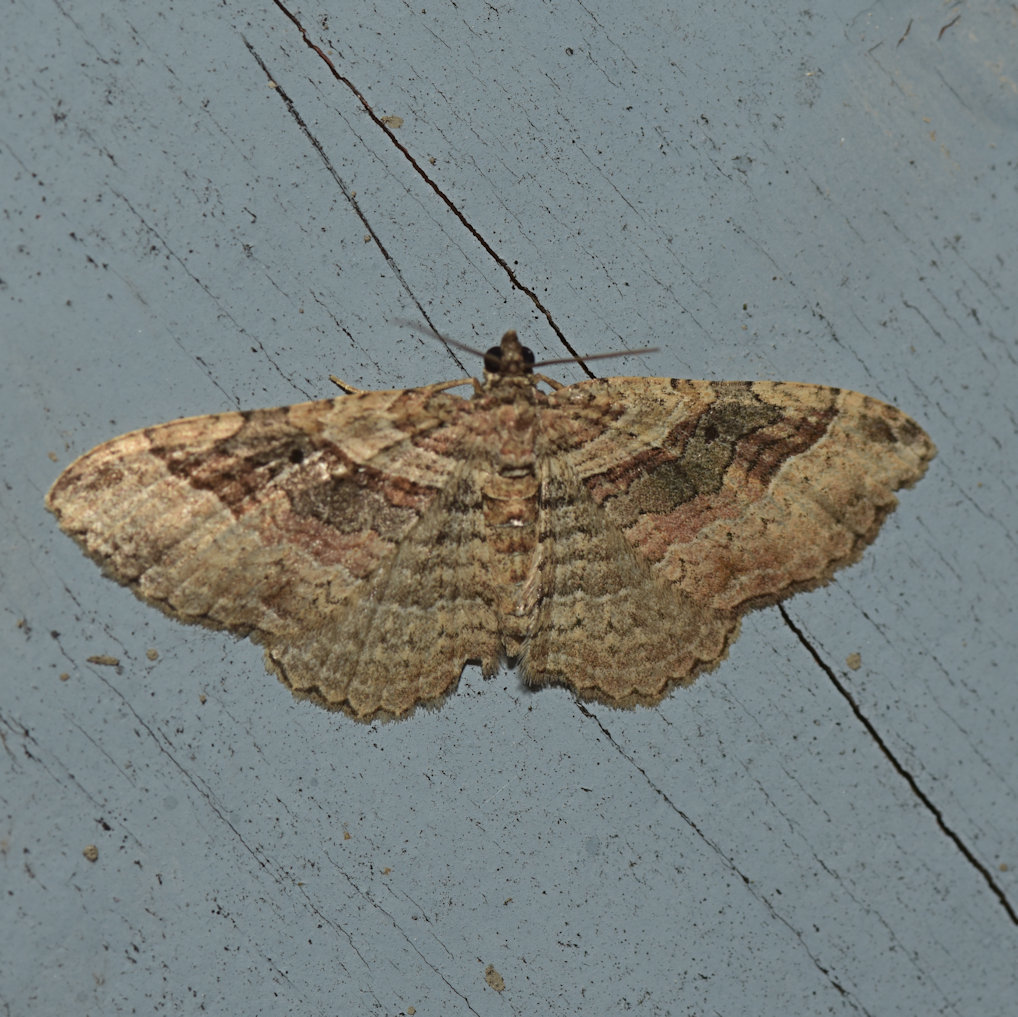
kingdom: Animalia
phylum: Arthropoda
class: Insecta
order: Lepidoptera
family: Geometridae
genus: Costaconvexa
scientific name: Costaconvexa centrostrigaria
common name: Bent-line carpet
